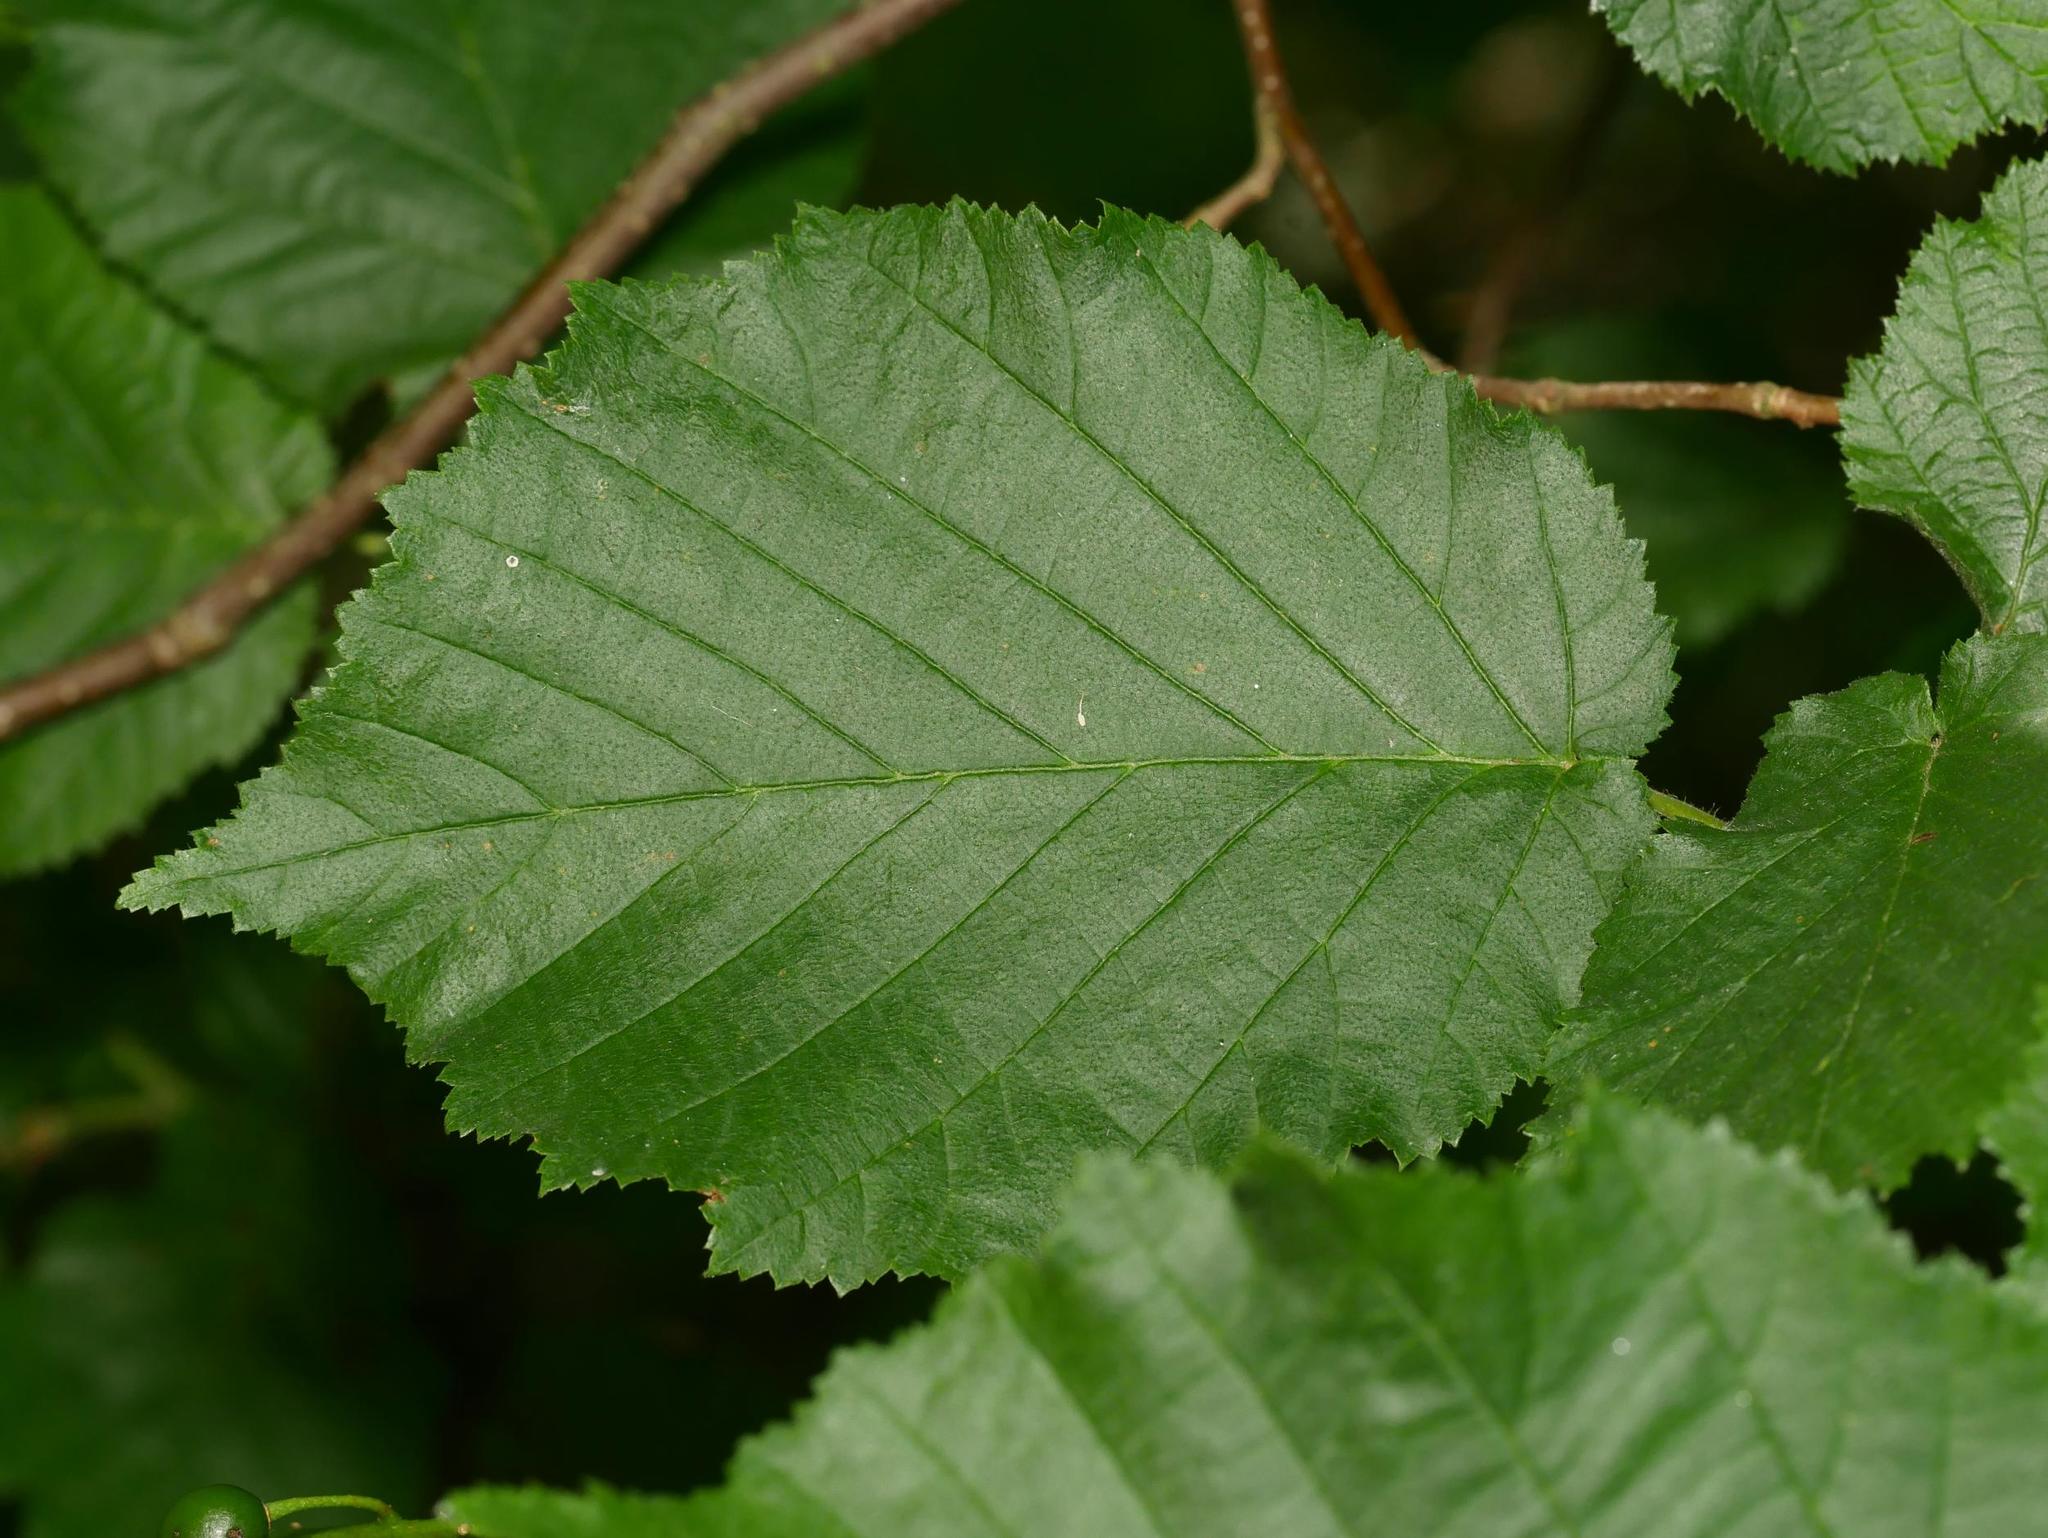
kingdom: Plantae
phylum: Tracheophyta
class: Magnoliopsida
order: Fagales
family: Betulaceae
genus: Corylus
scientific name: Corylus avellana
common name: European hazel
